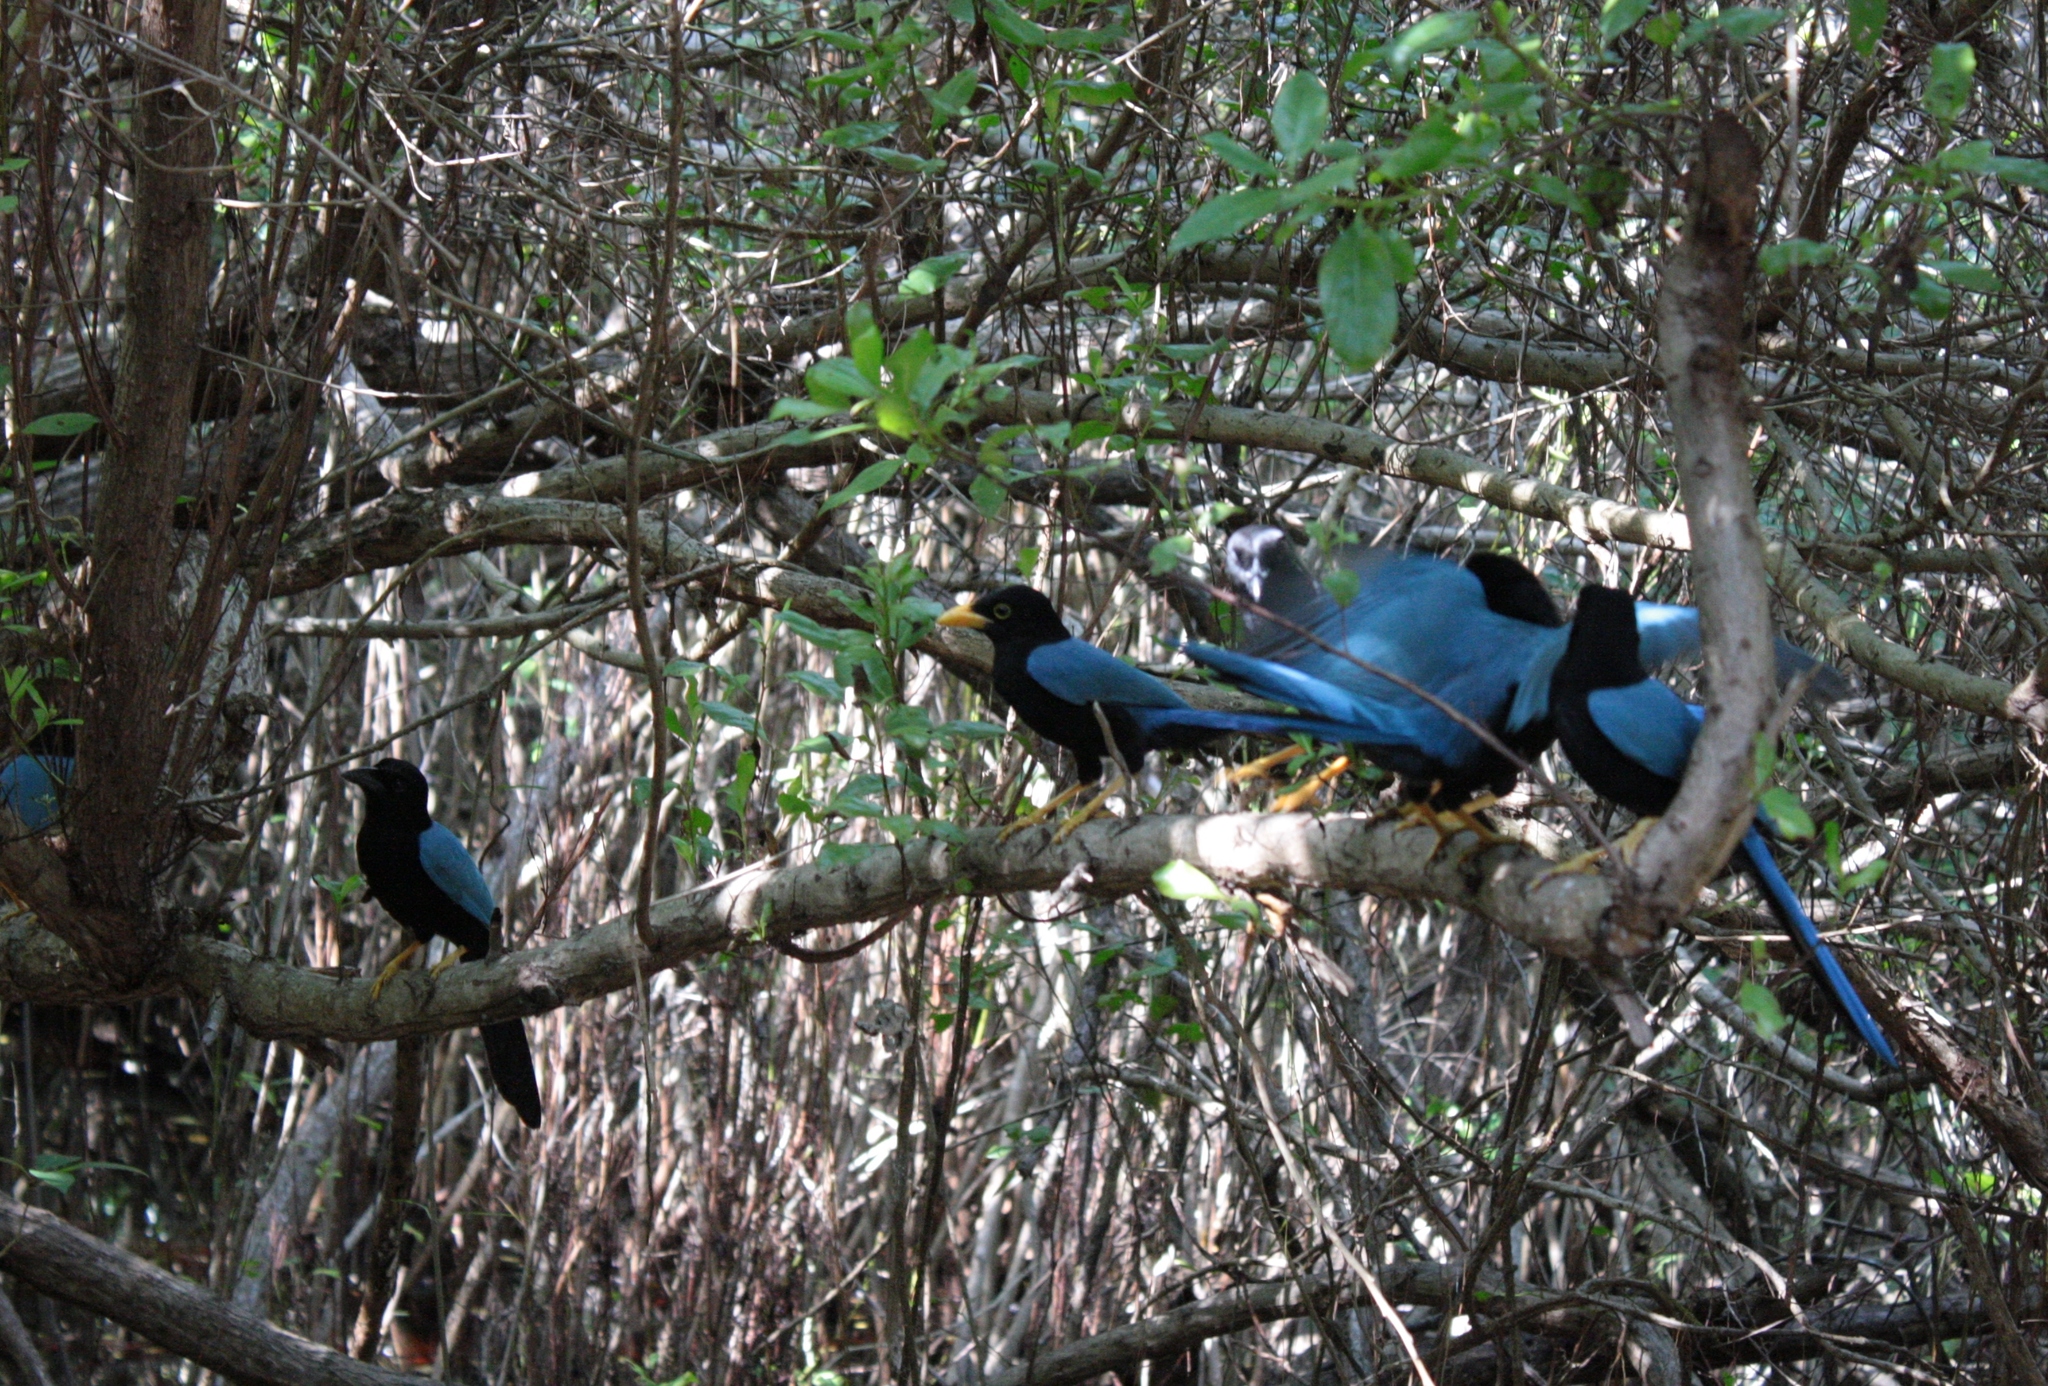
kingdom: Animalia
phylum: Chordata
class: Aves
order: Passeriformes
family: Corvidae
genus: Cyanocorax
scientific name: Cyanocorax yucatanicus
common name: Yucatan jay
